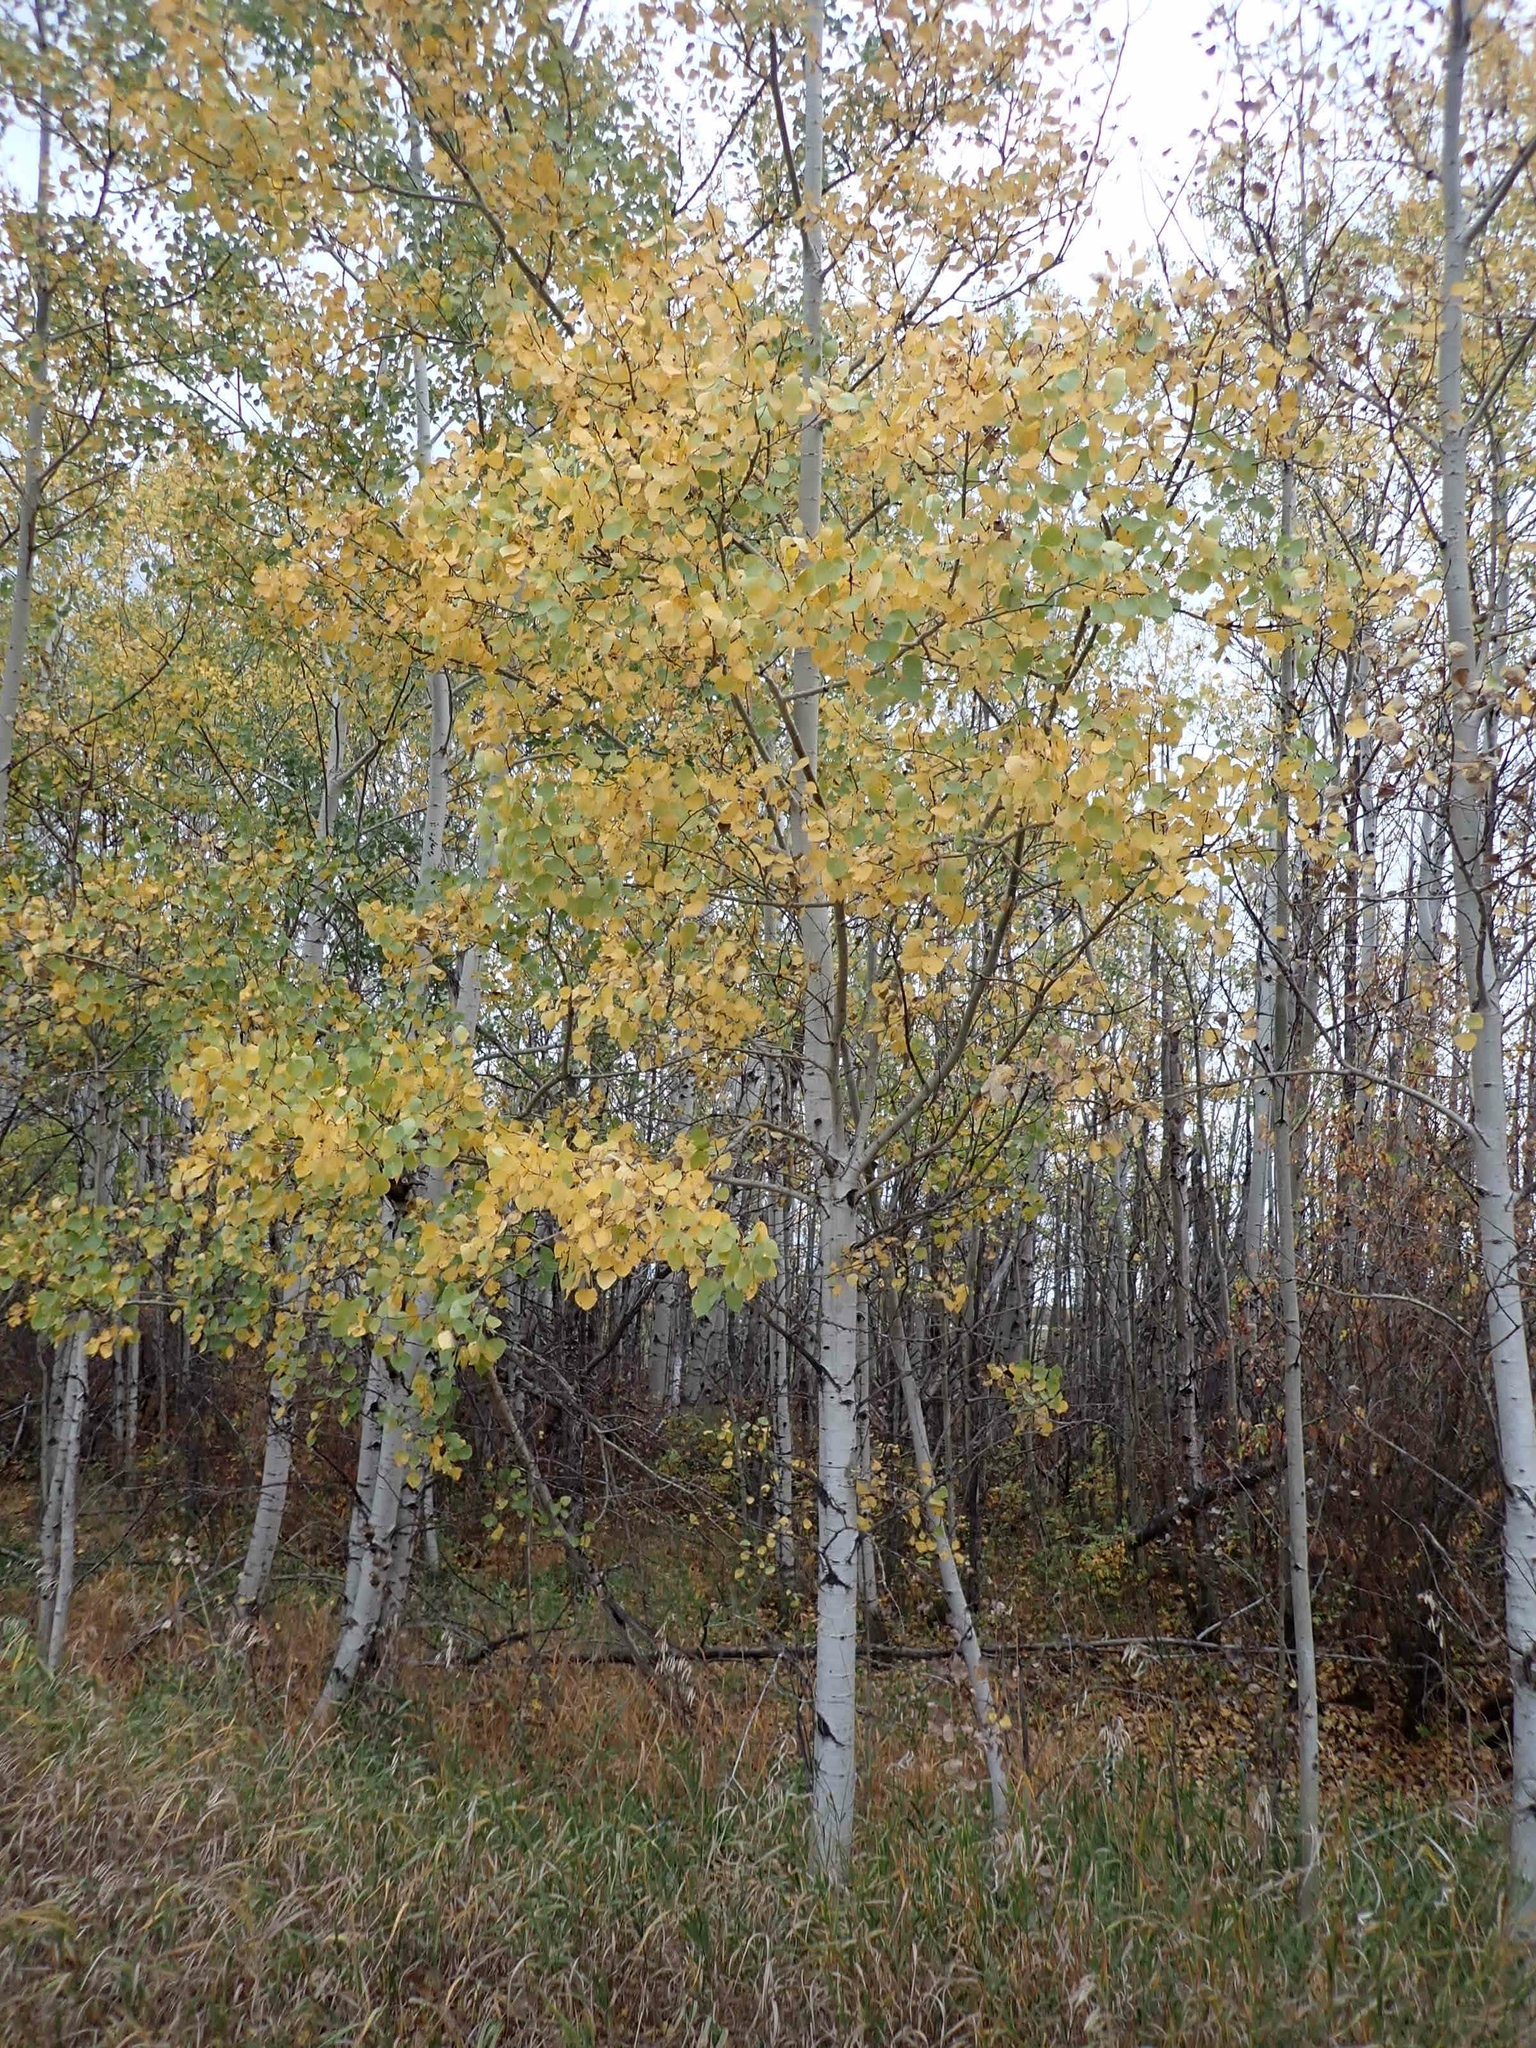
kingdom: Plantae
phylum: Tracheophyta
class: Magnoliopsida
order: Malpighiales
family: Salicaceae
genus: Populus
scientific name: Populus tremuloides
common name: Quaking aspen
